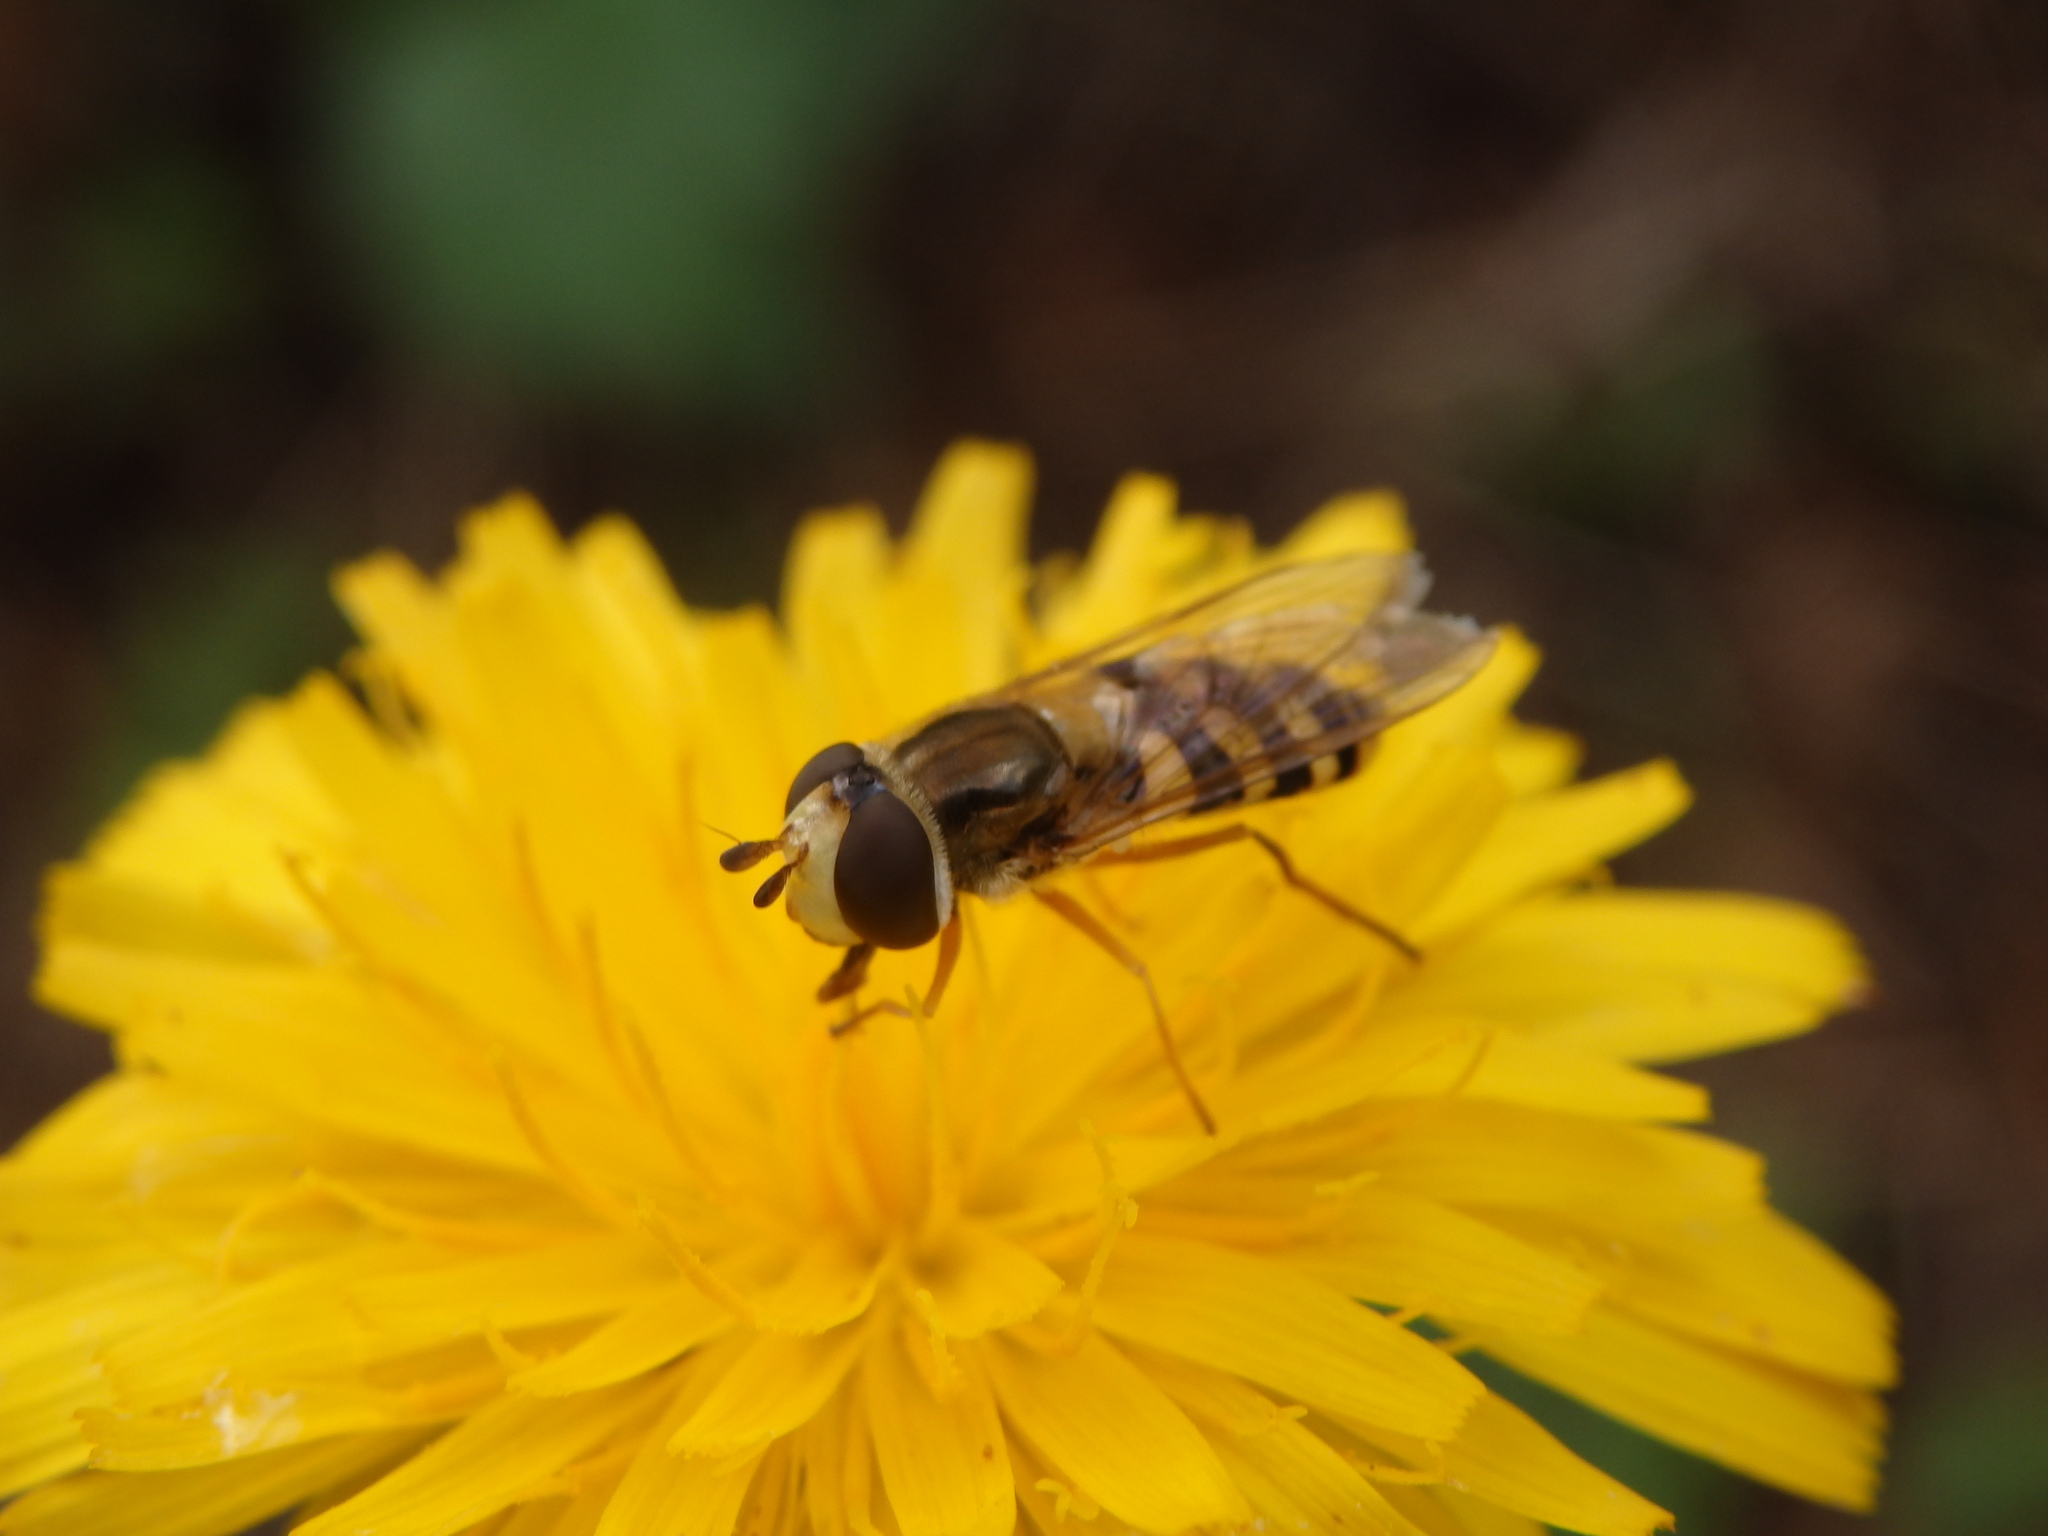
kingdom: Animalia
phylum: Arthropoda
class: Insecta
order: Diptera
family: Syrphidae
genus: Eupeodes
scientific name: Eupeodes corollae
